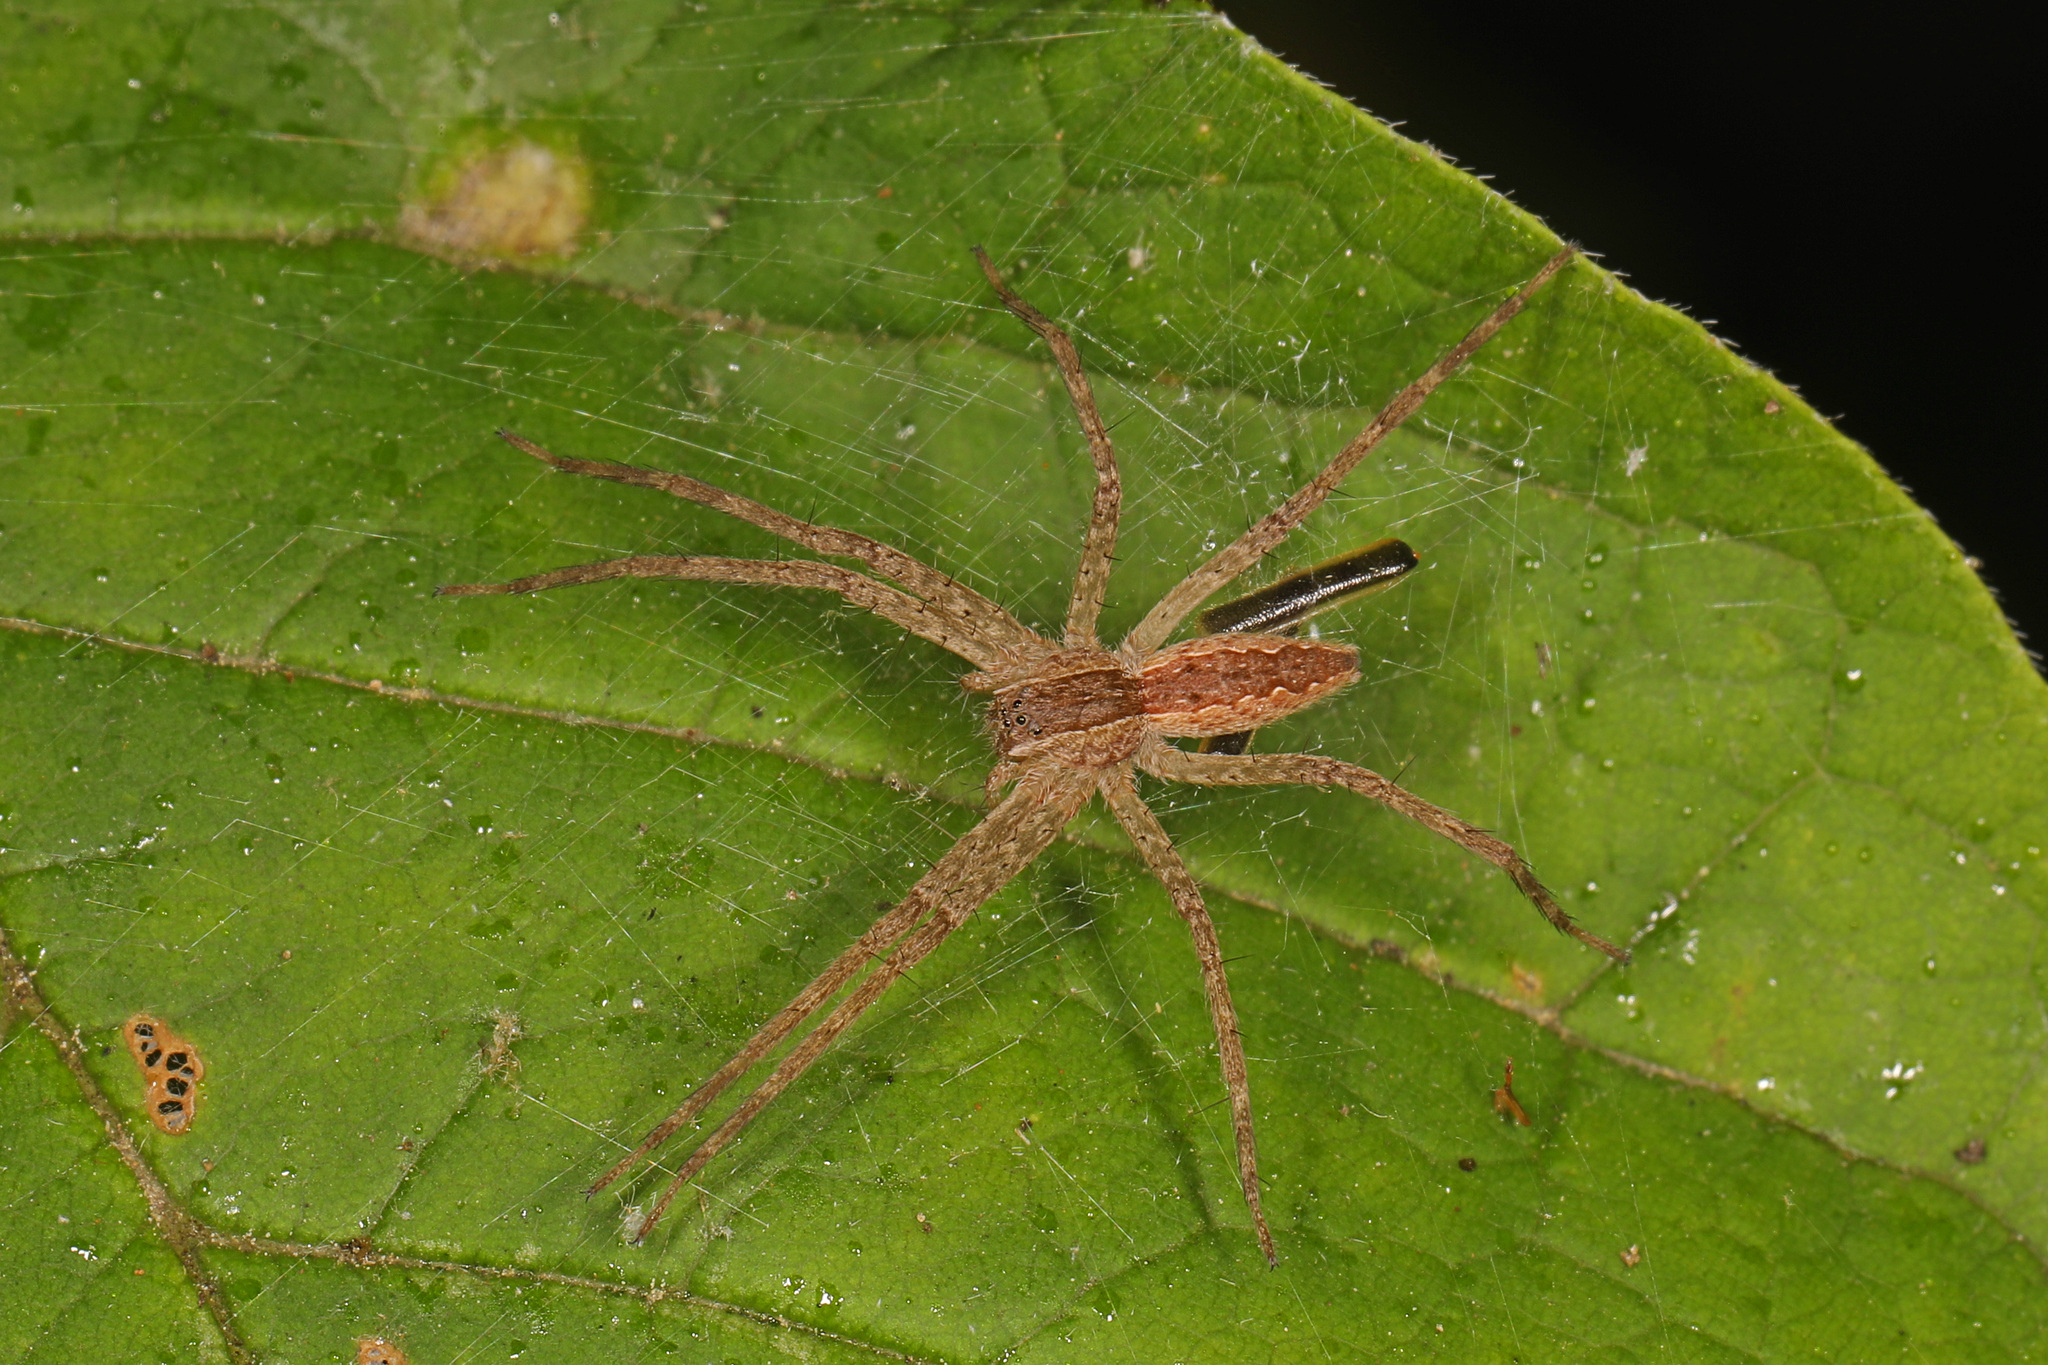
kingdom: Animalia
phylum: Arthropoda
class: Arachnida
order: Araneae
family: Pisauridae
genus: Pisaurina
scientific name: Pisaurina mira
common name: American nursery web spider
